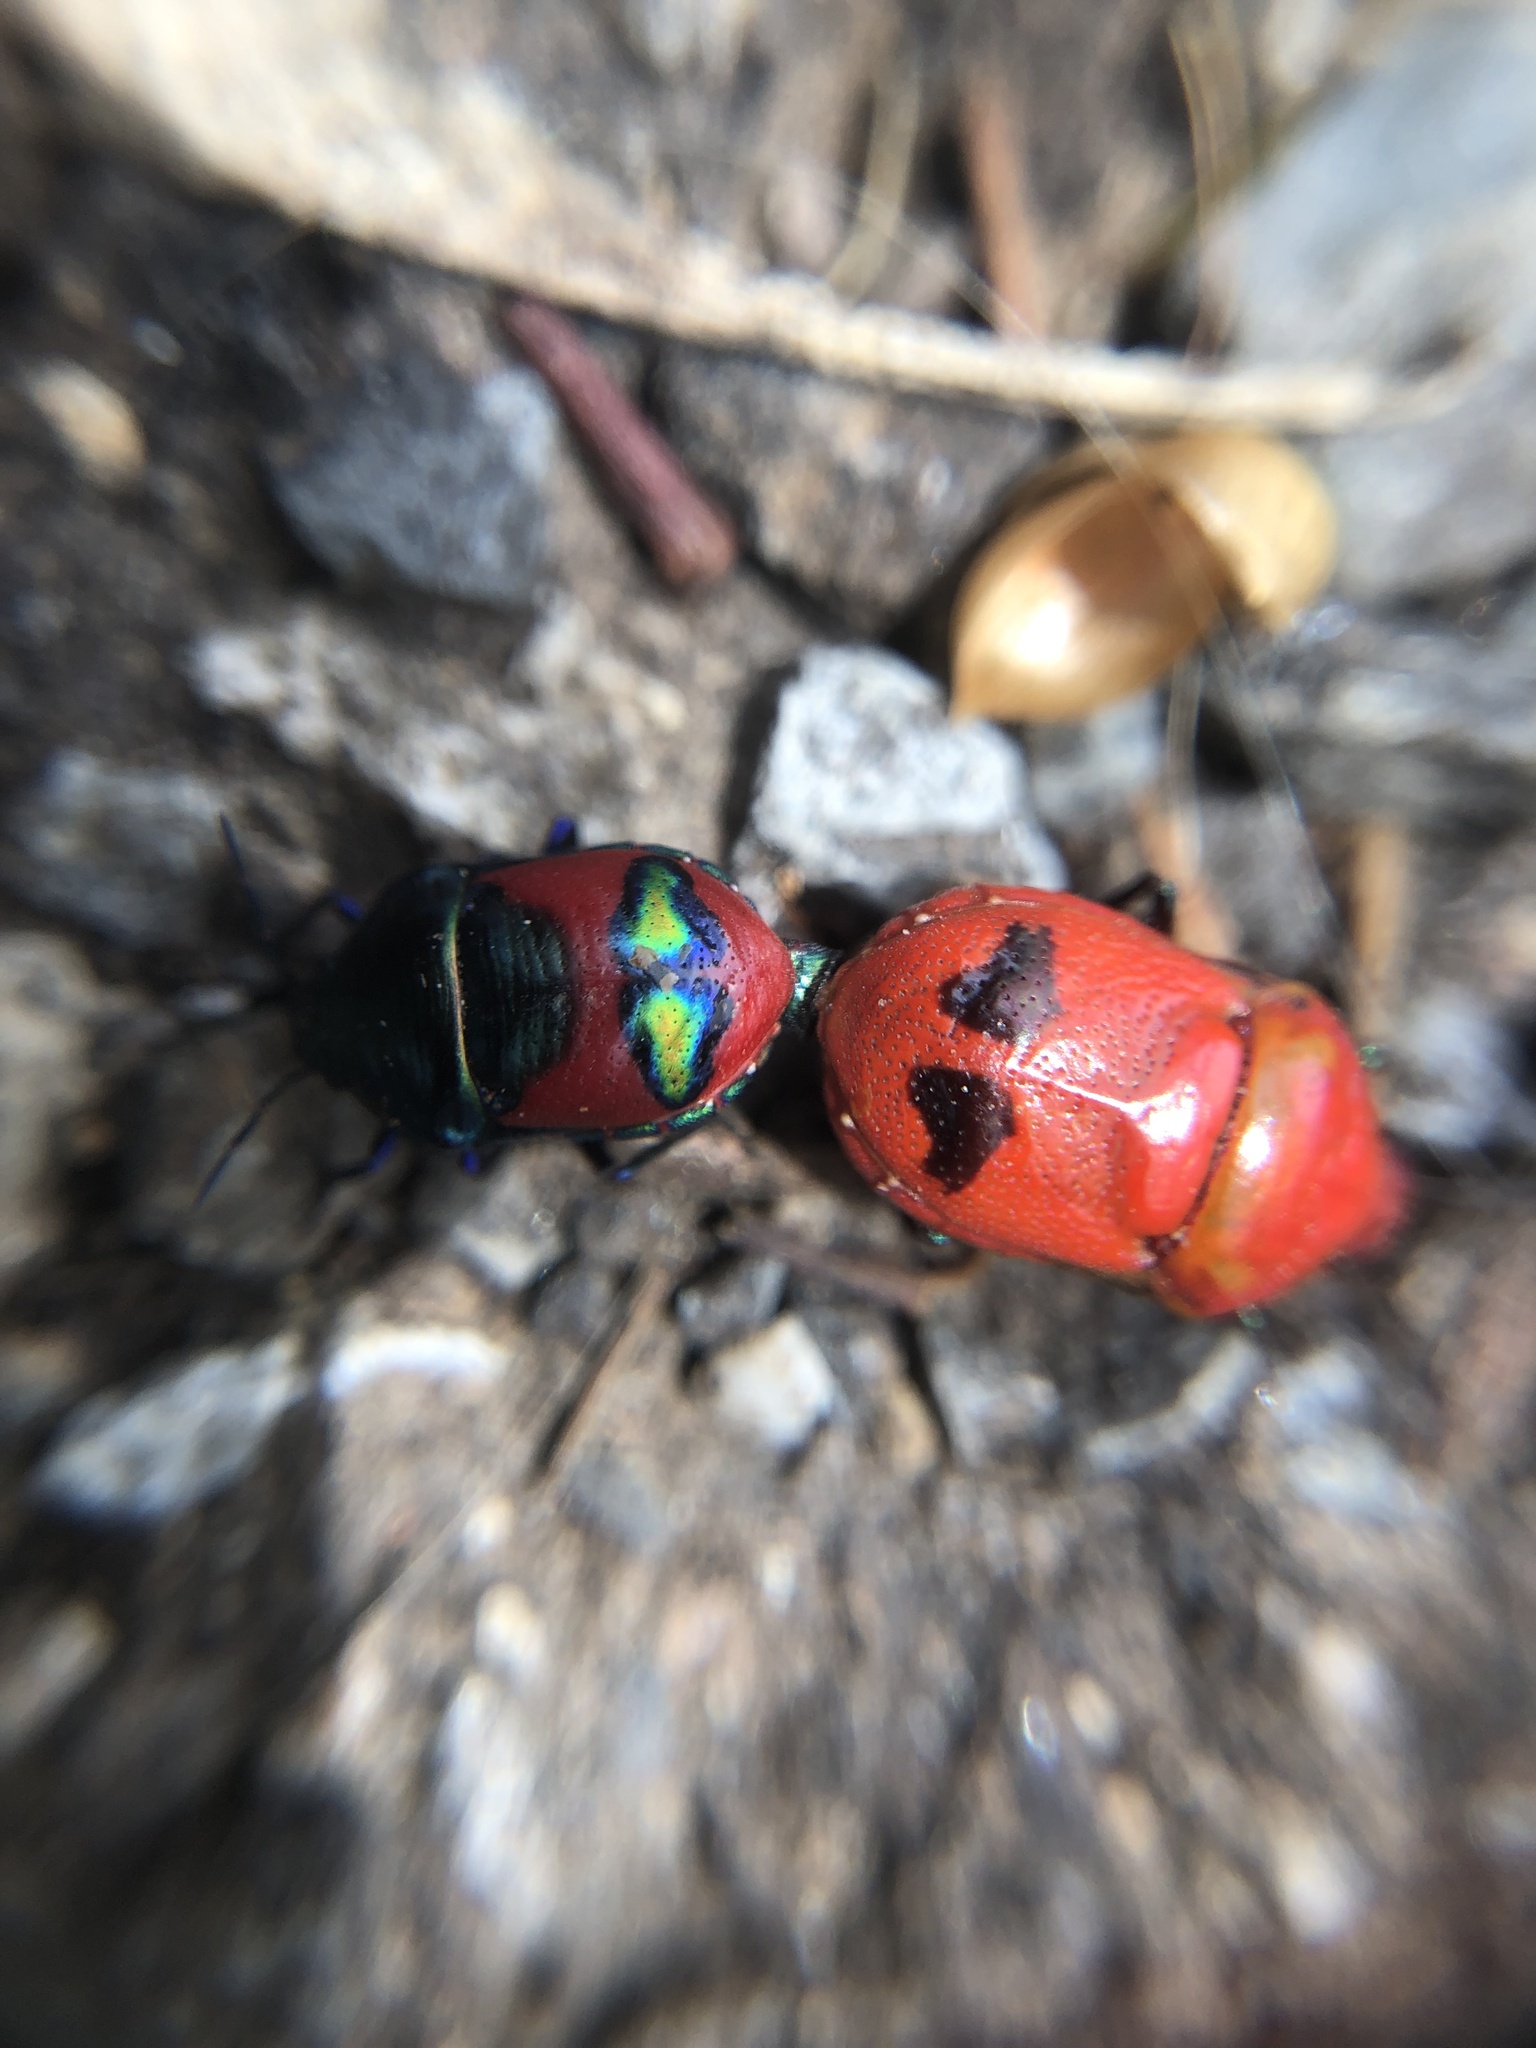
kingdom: Animalia
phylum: Arthropoda
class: Insecta
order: Hemiptera
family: Scutelleridae
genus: Choerocoris
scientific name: Choerocoris paganus
